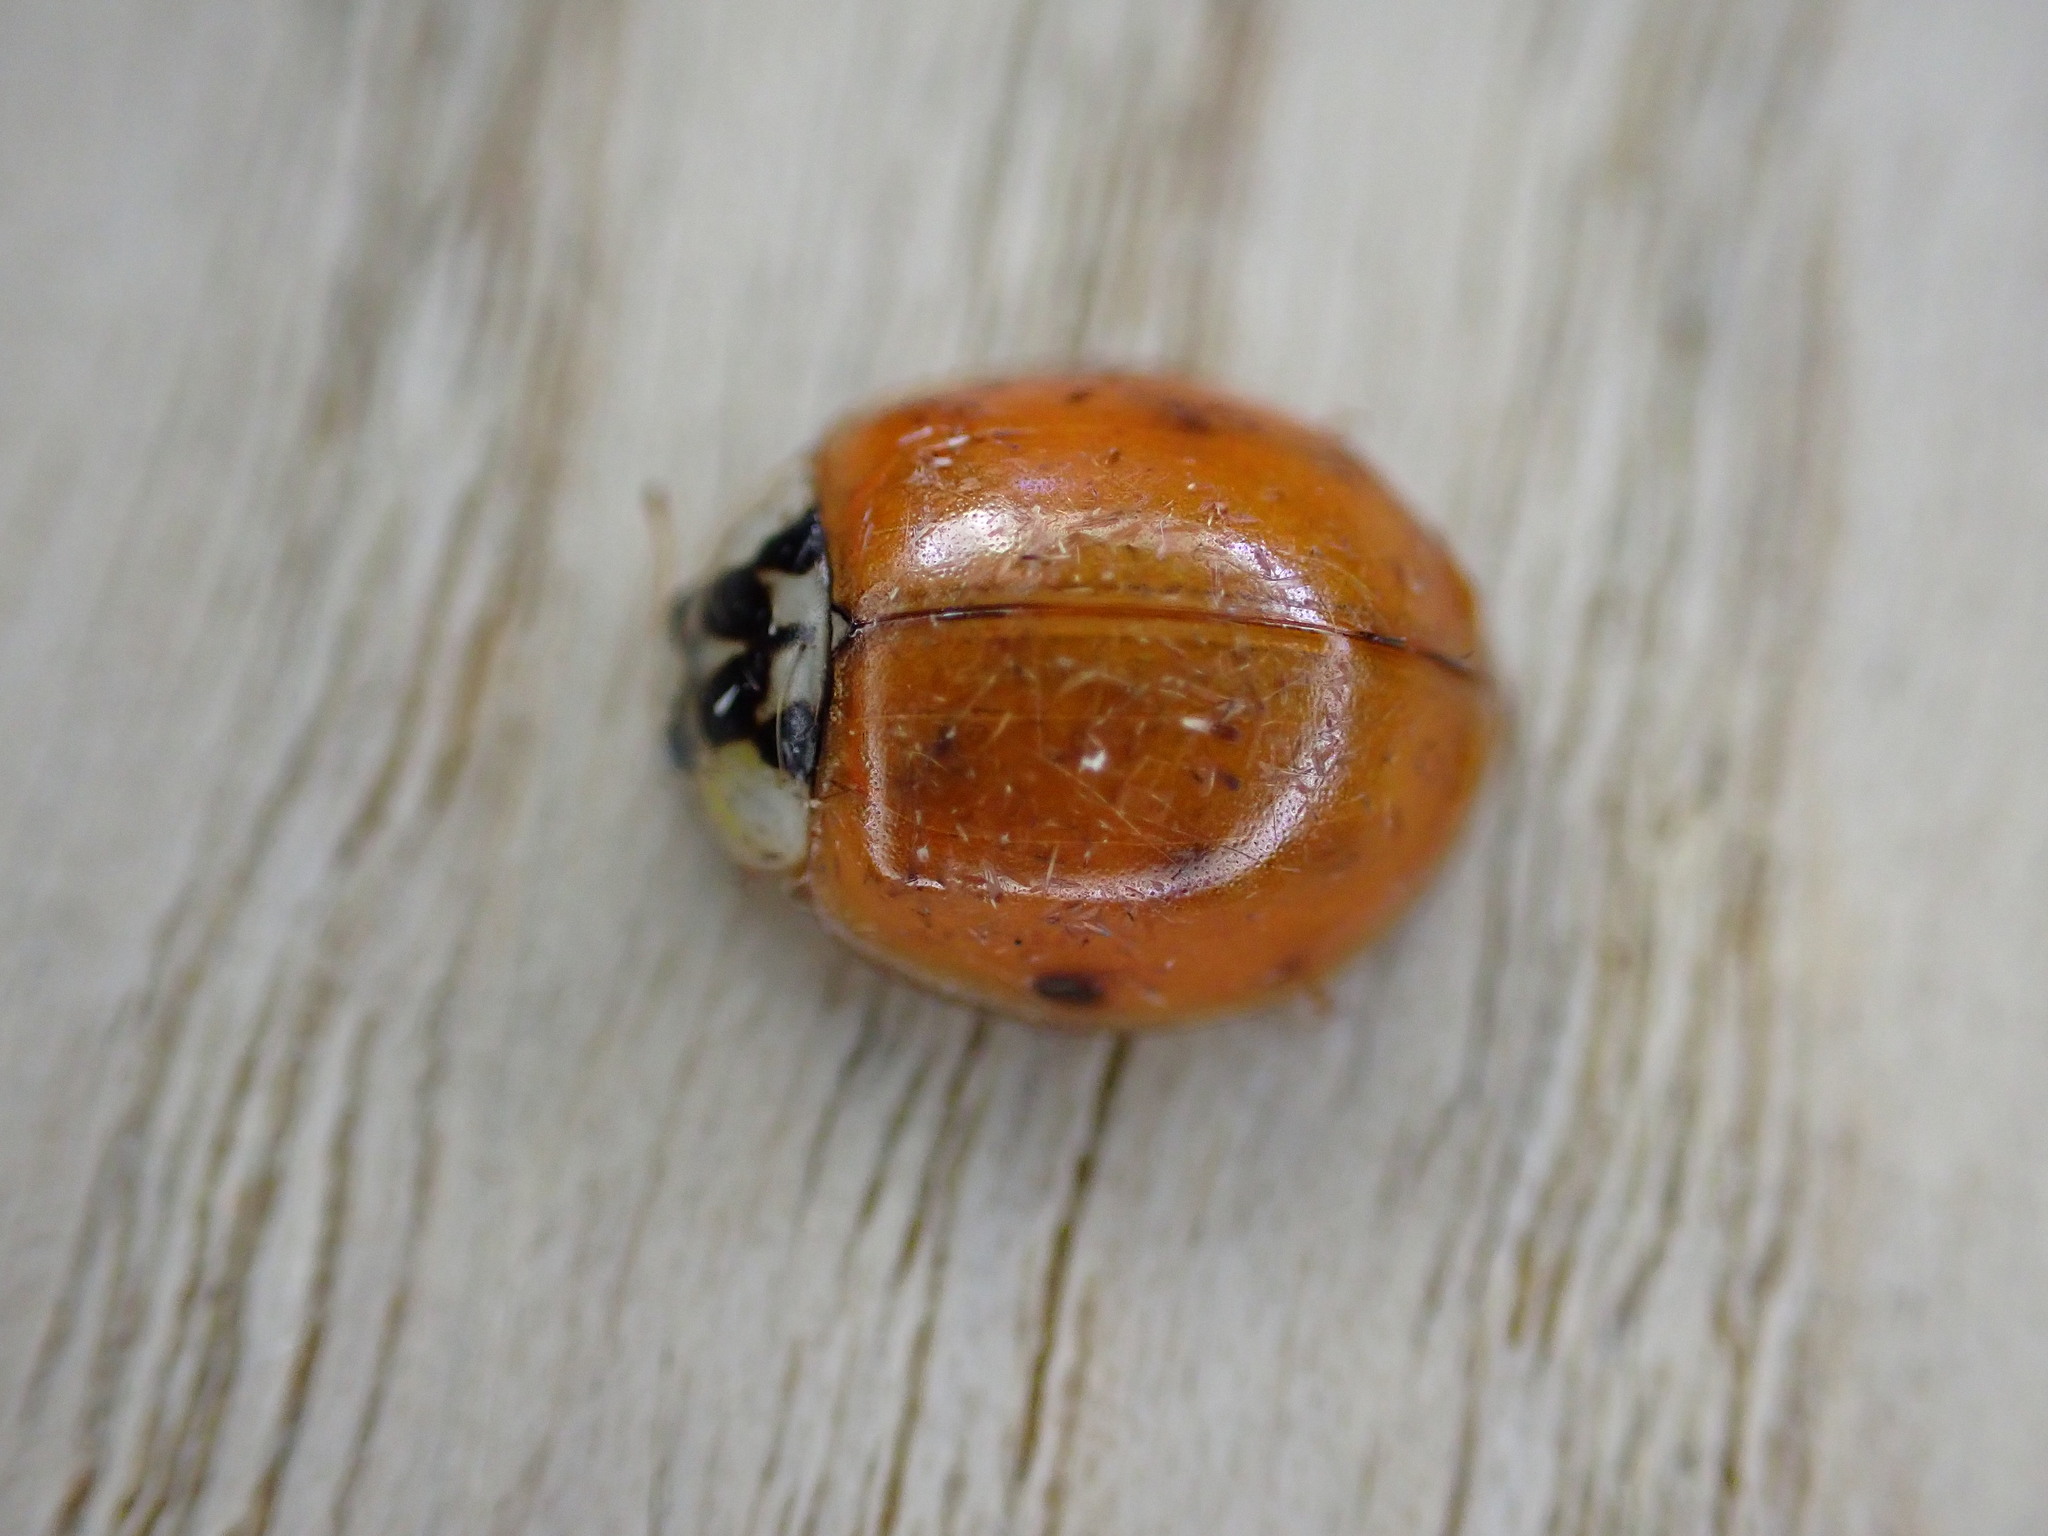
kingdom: Animalia
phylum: Arthropoda
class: Insecta
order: Coleoptera
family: Coccinellidae
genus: Harmonia
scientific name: Harmonia axyridis
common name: Harlequin ladybird
